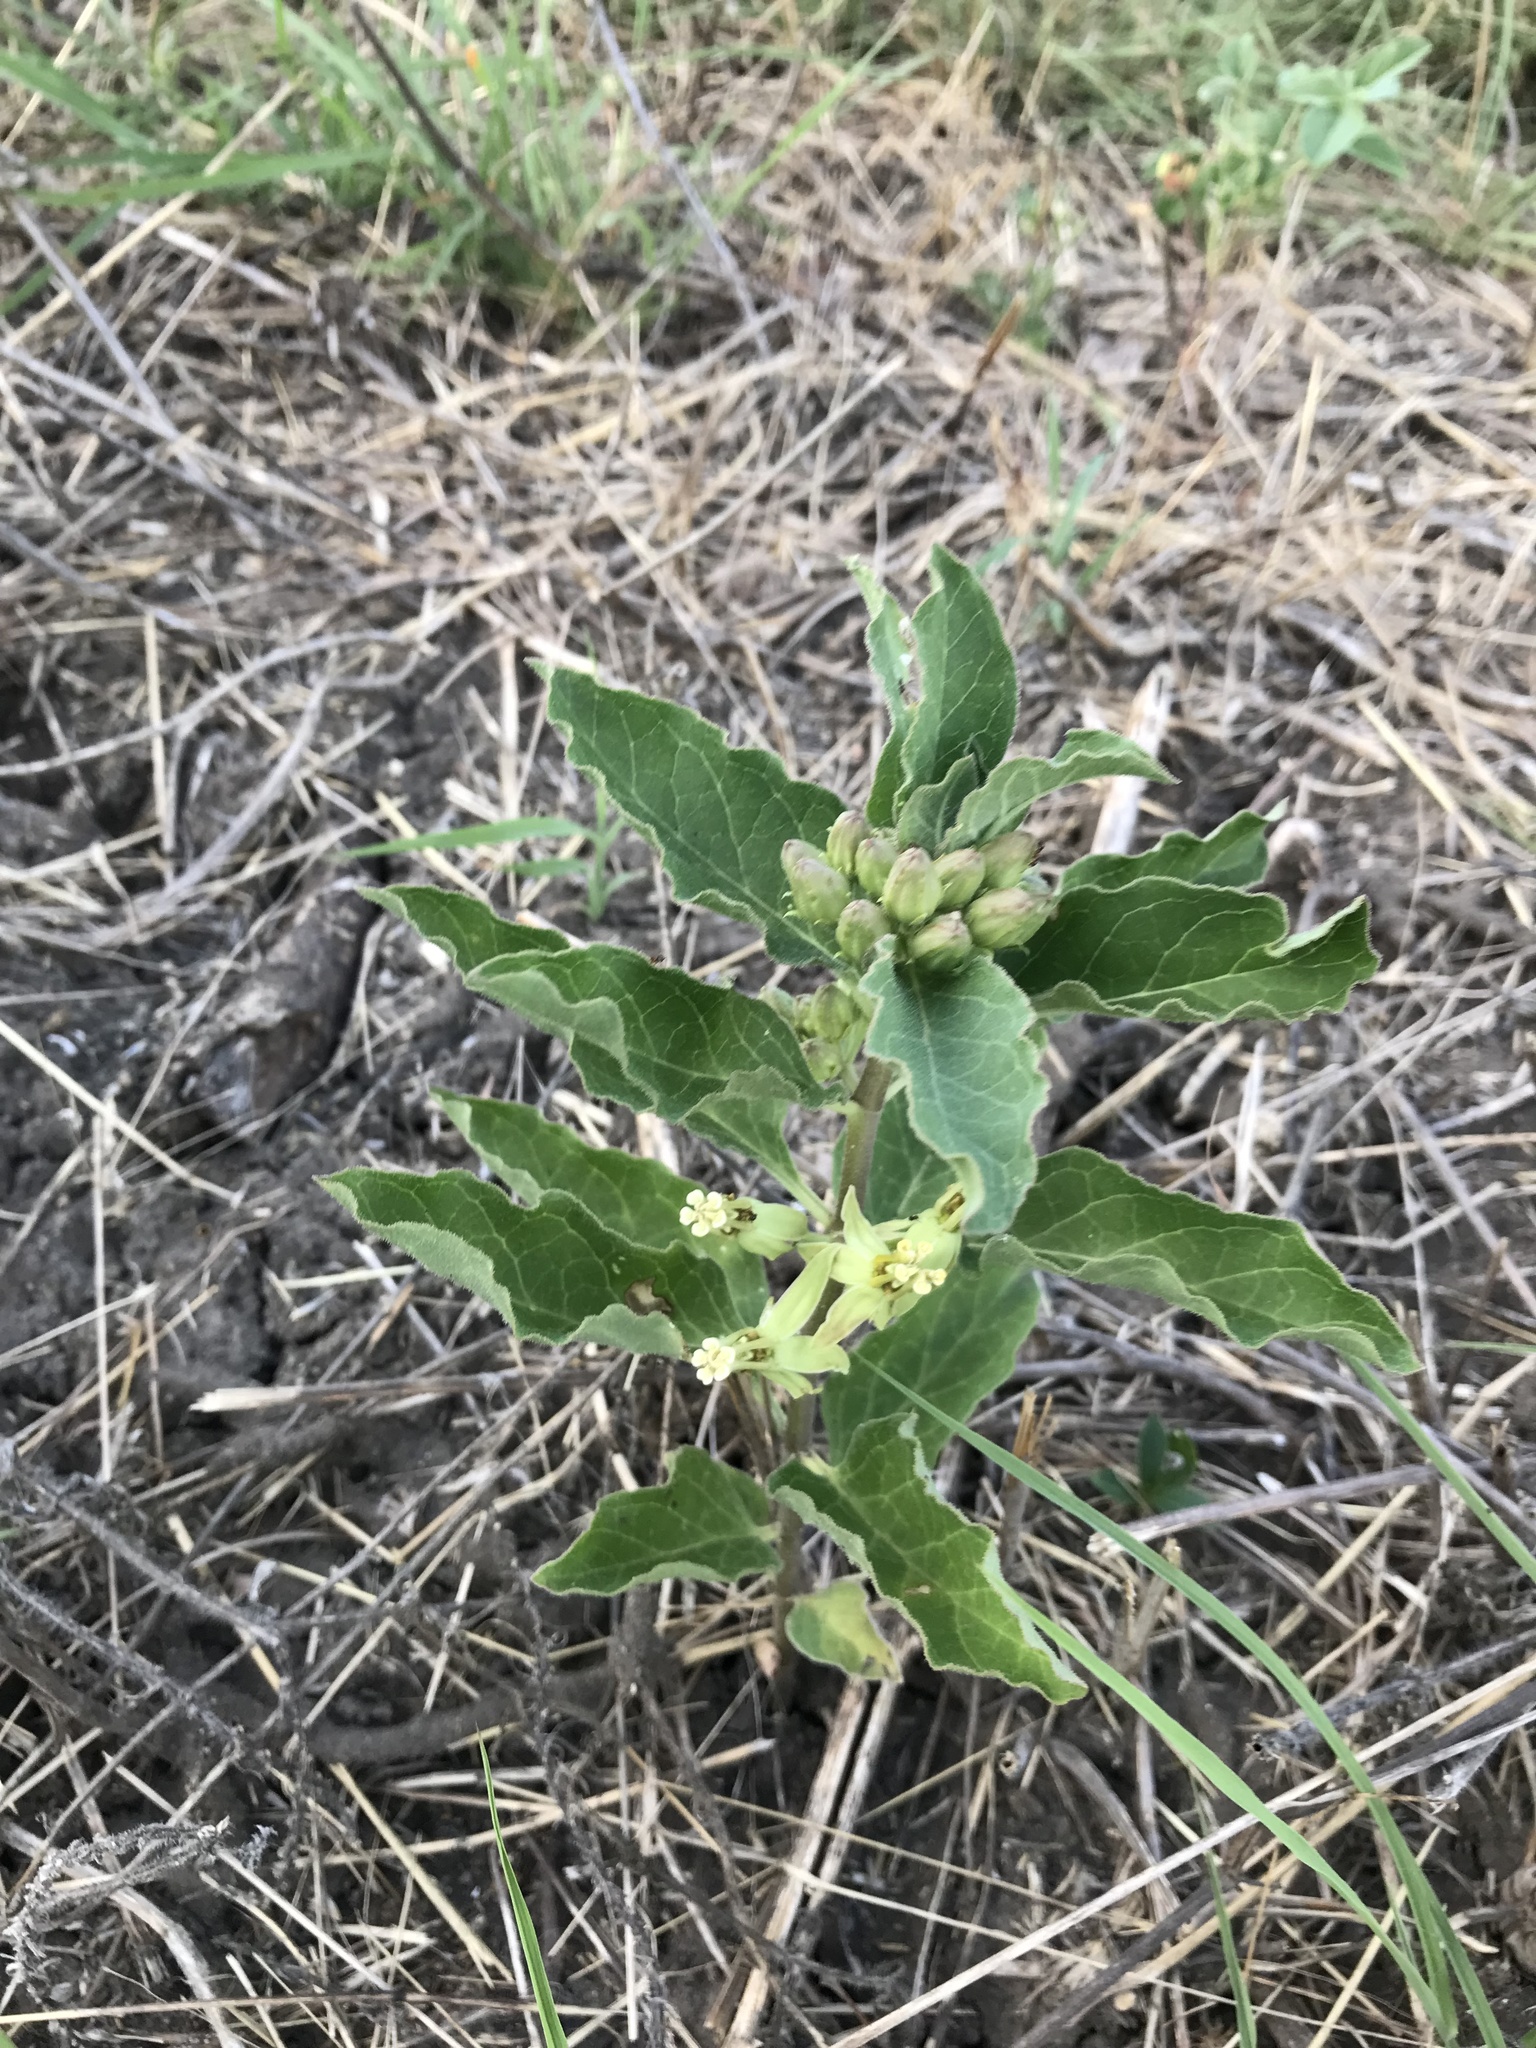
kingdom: Plantae
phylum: Tracheophyta
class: Magnoliopsida
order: Gentianales
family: Apocynaceae
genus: Asclepias
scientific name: Asclepias oenotheroides
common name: Zizotes milkweed
